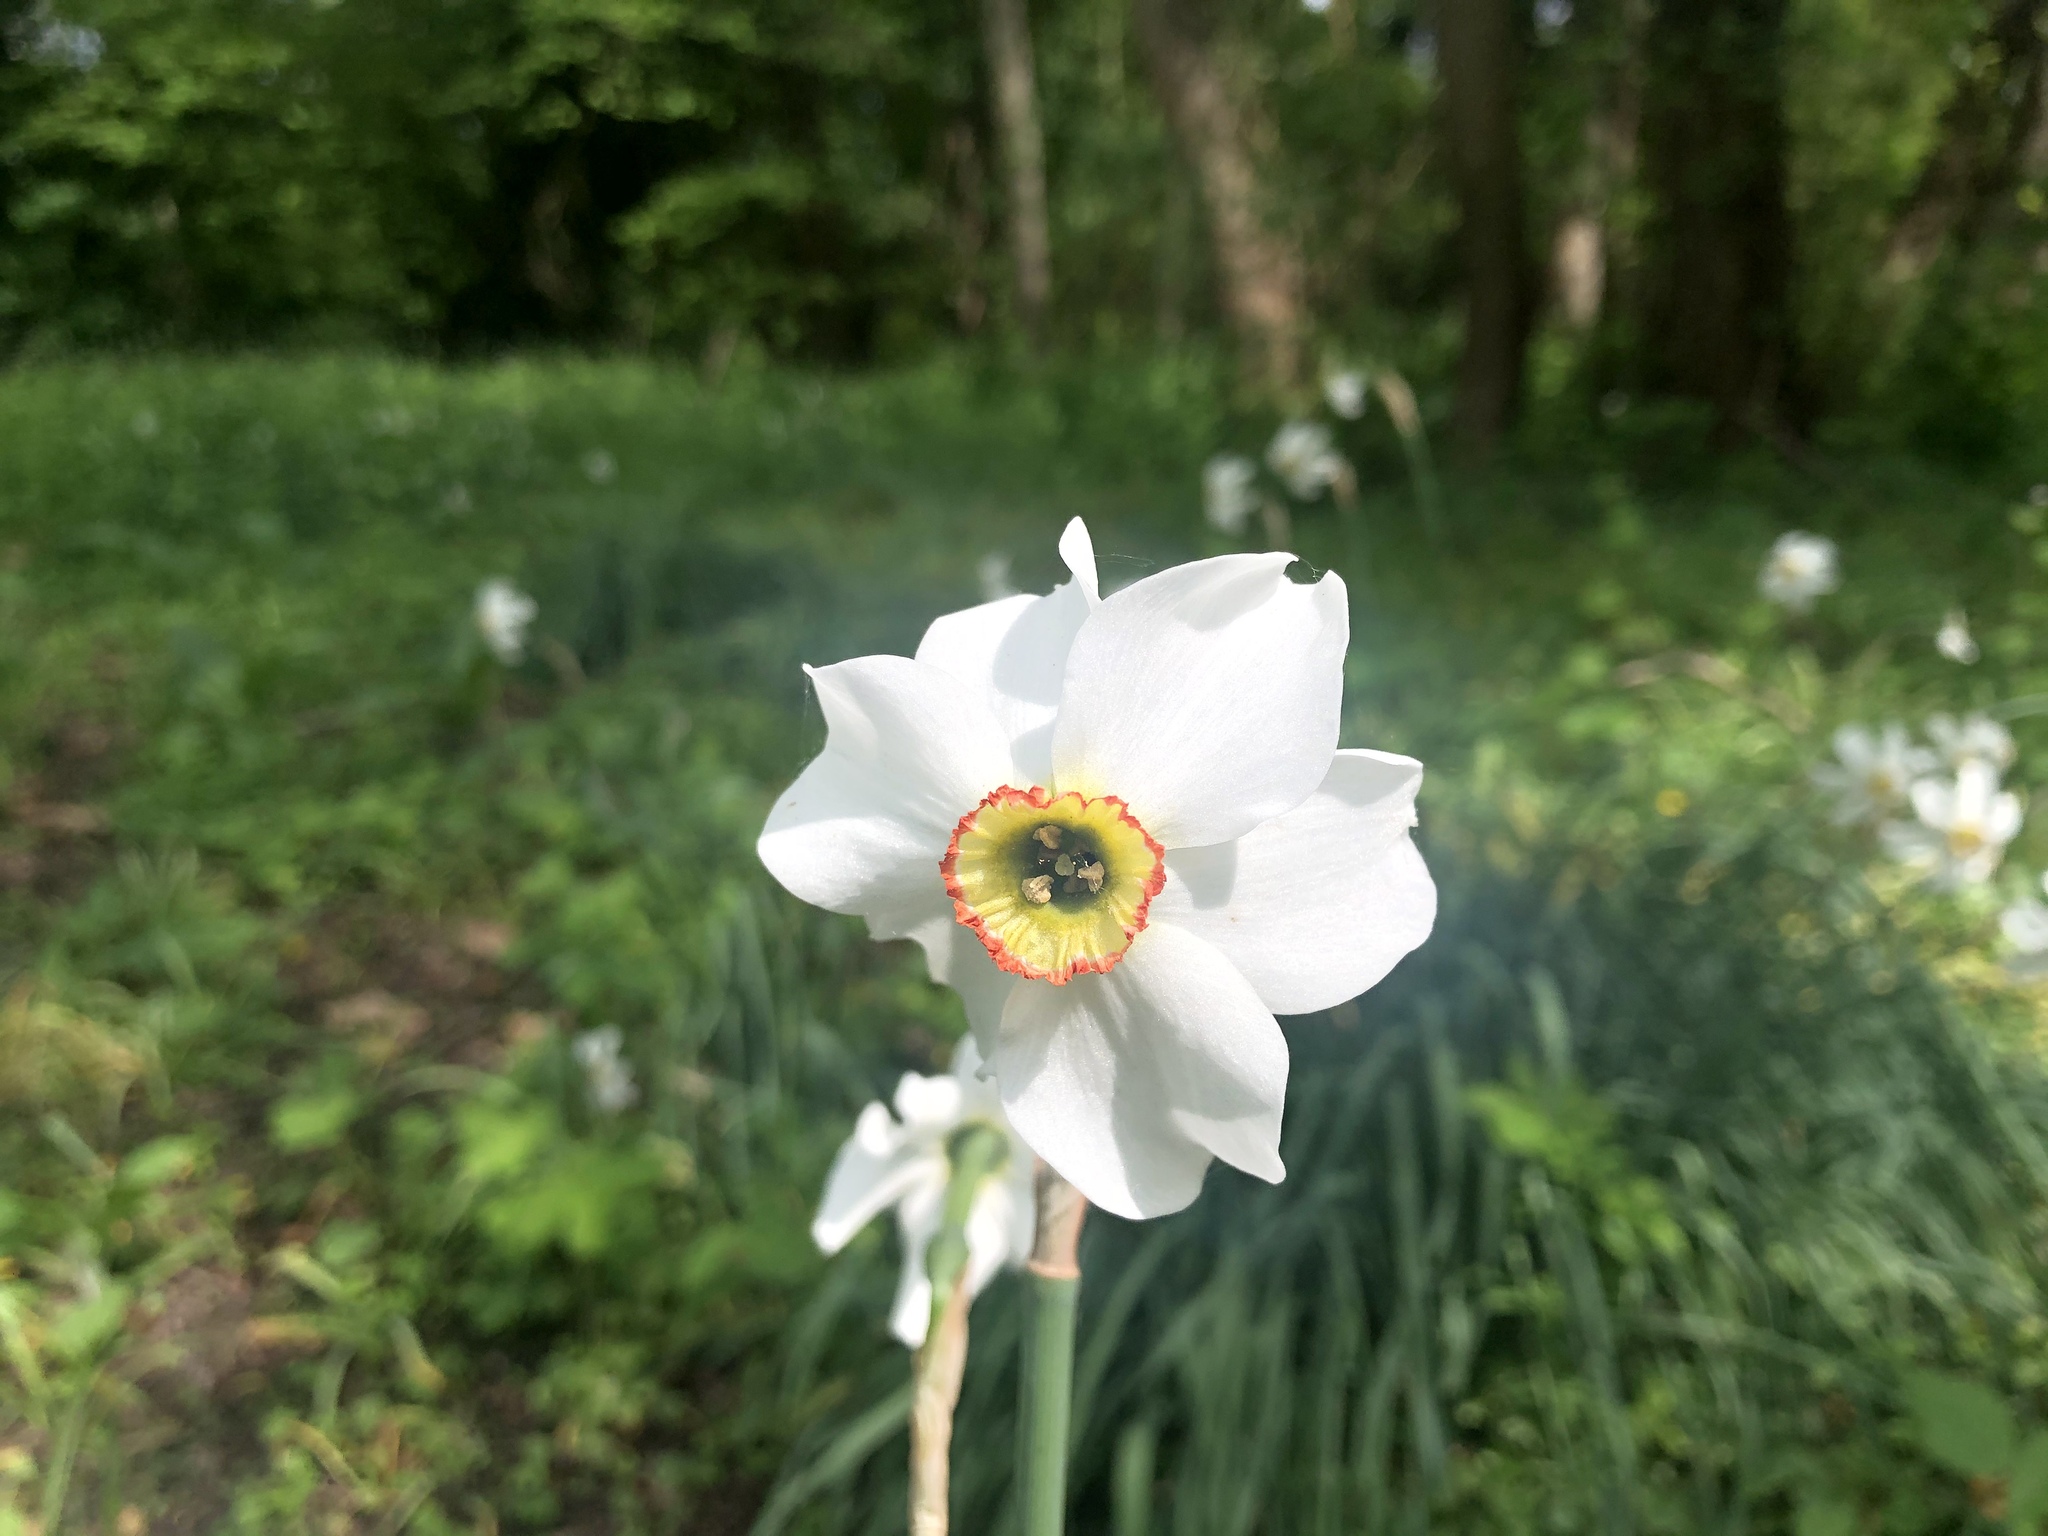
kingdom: Plantae
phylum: Tracheophyta
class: Liliopsida
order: Asparagales
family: Amaryllidaceae
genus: Narcissus
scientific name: Narcissus poeticus
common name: Pheasant's-eye daffodil
